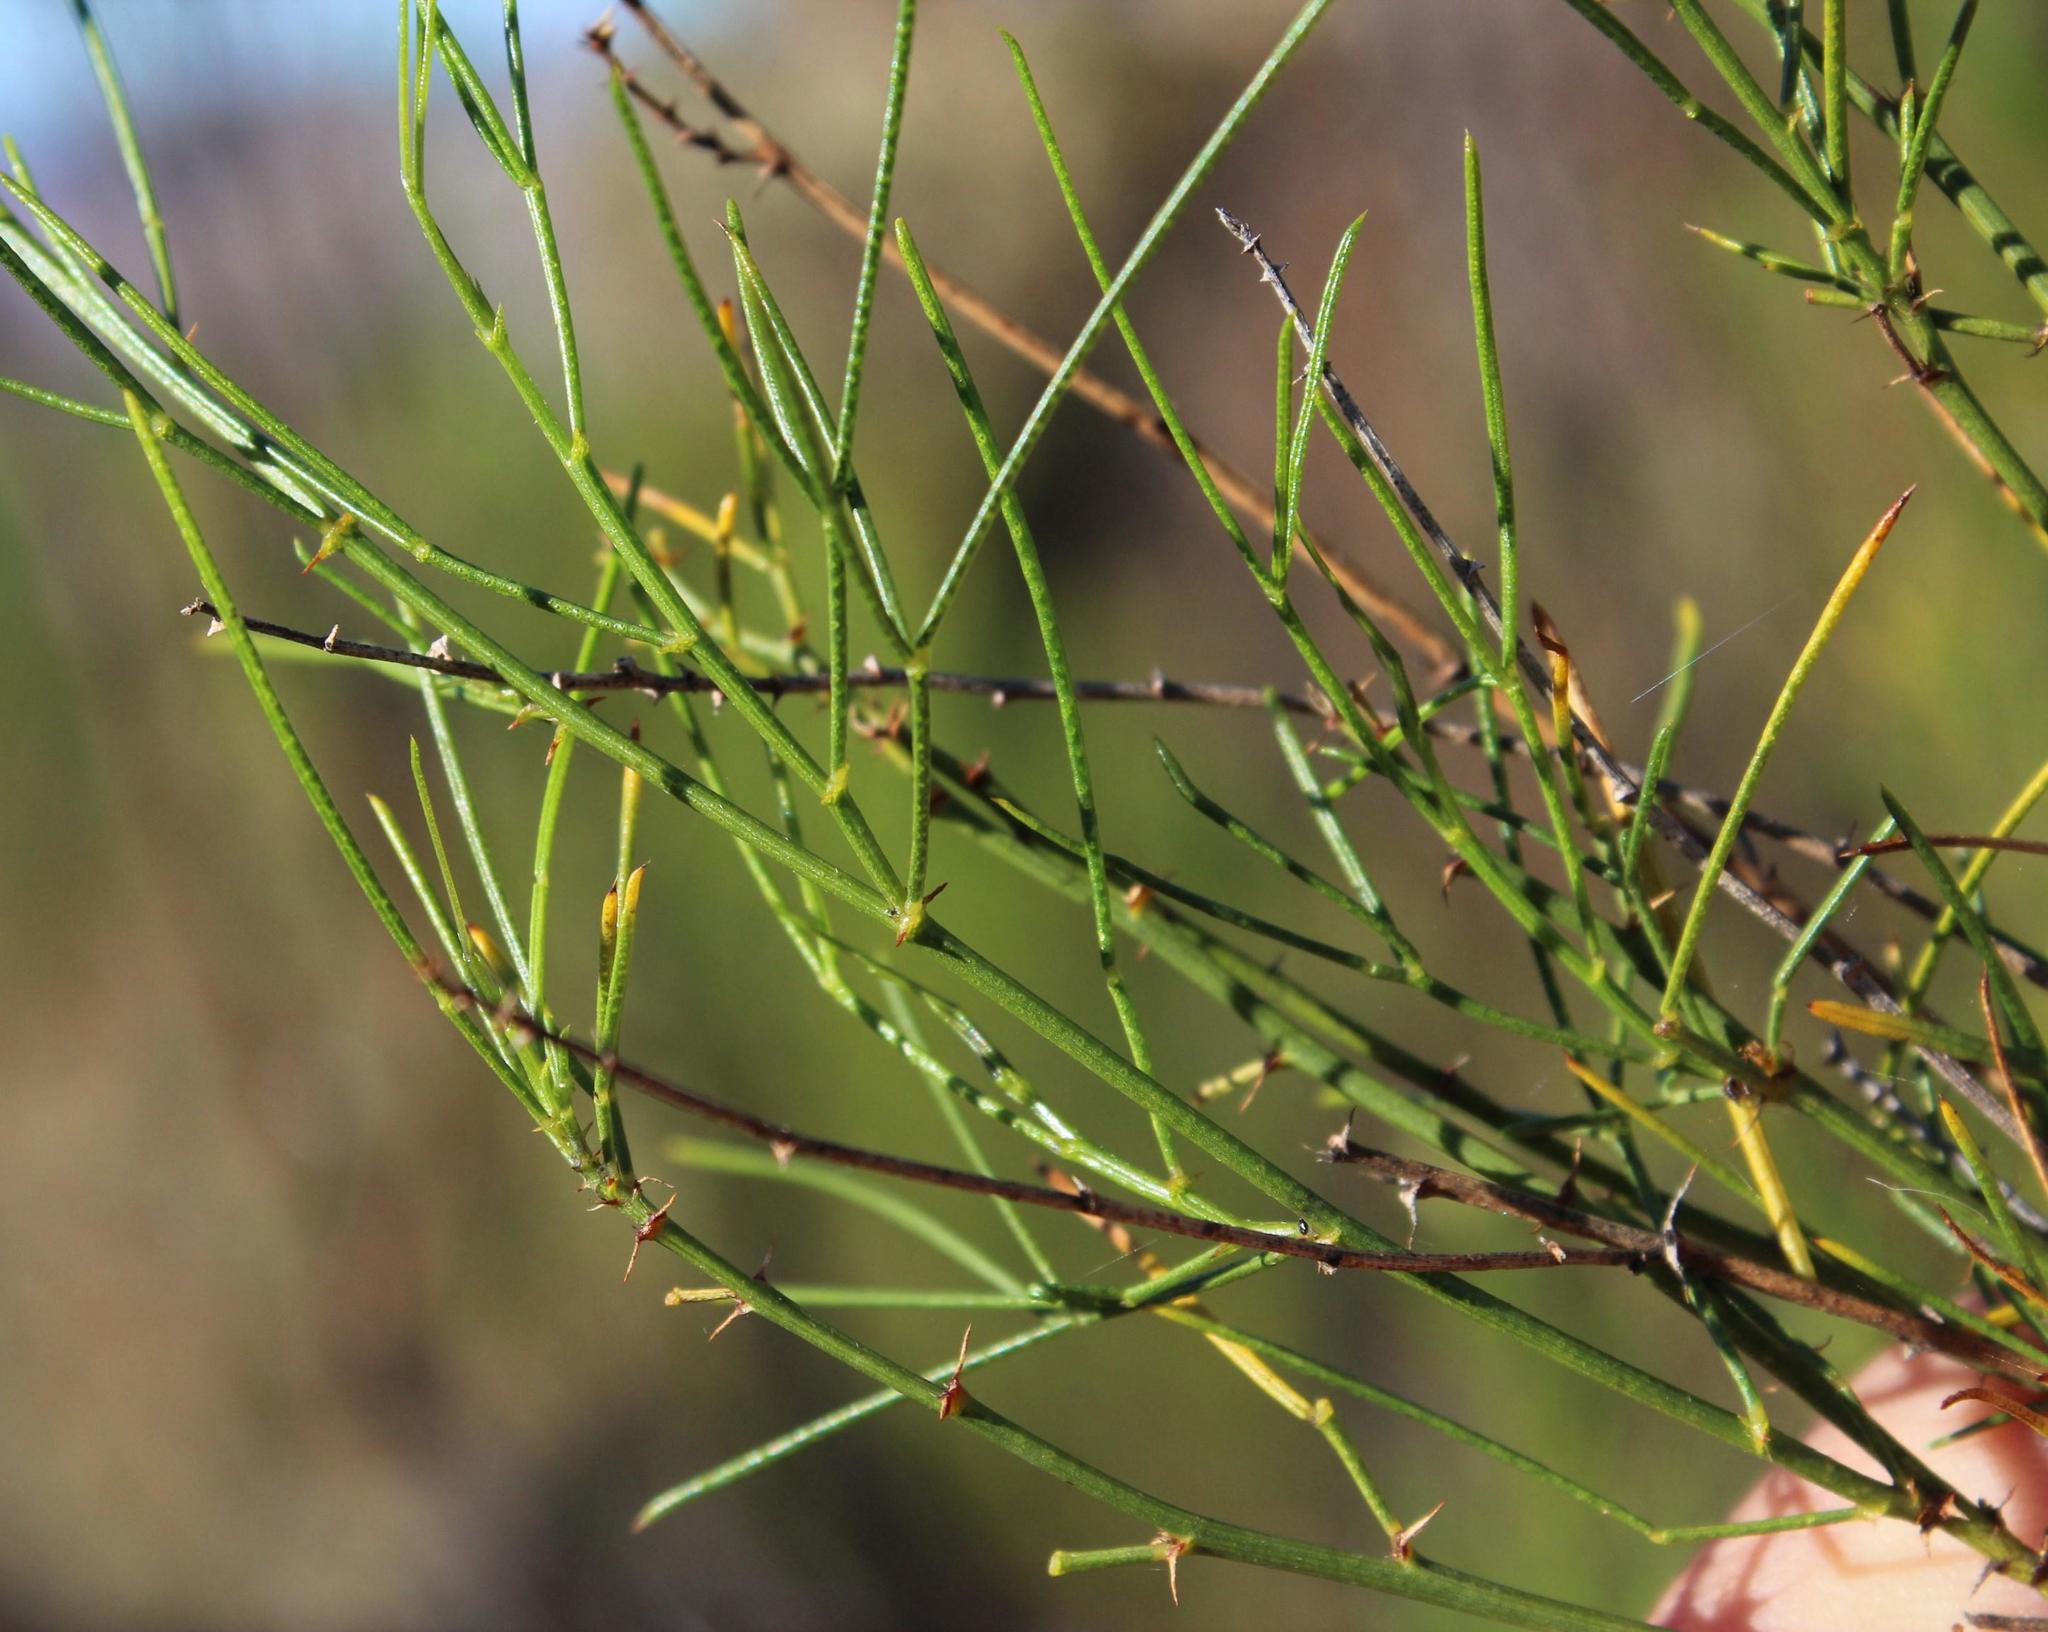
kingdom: Plantae
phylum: Tracheophyta
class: Magnoliopsida
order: Fabales
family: Fabaceae
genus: Psoralea
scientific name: Psoralea
